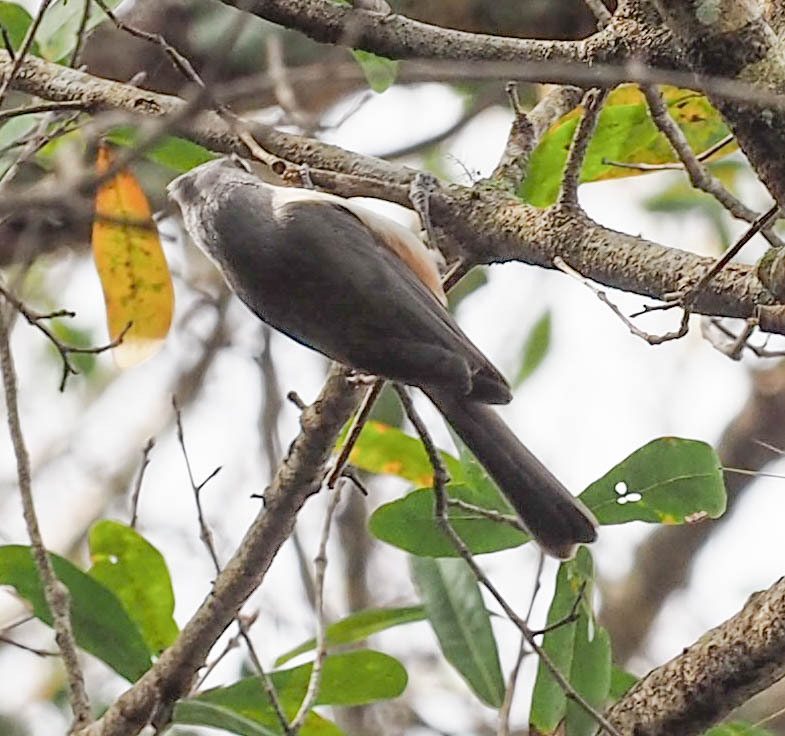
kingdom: Animalia
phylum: Chordata
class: Aves
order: Passeriformes
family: Paridae
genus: Baeolophus
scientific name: Baeolophus bicolor
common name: Tufted titmouse
